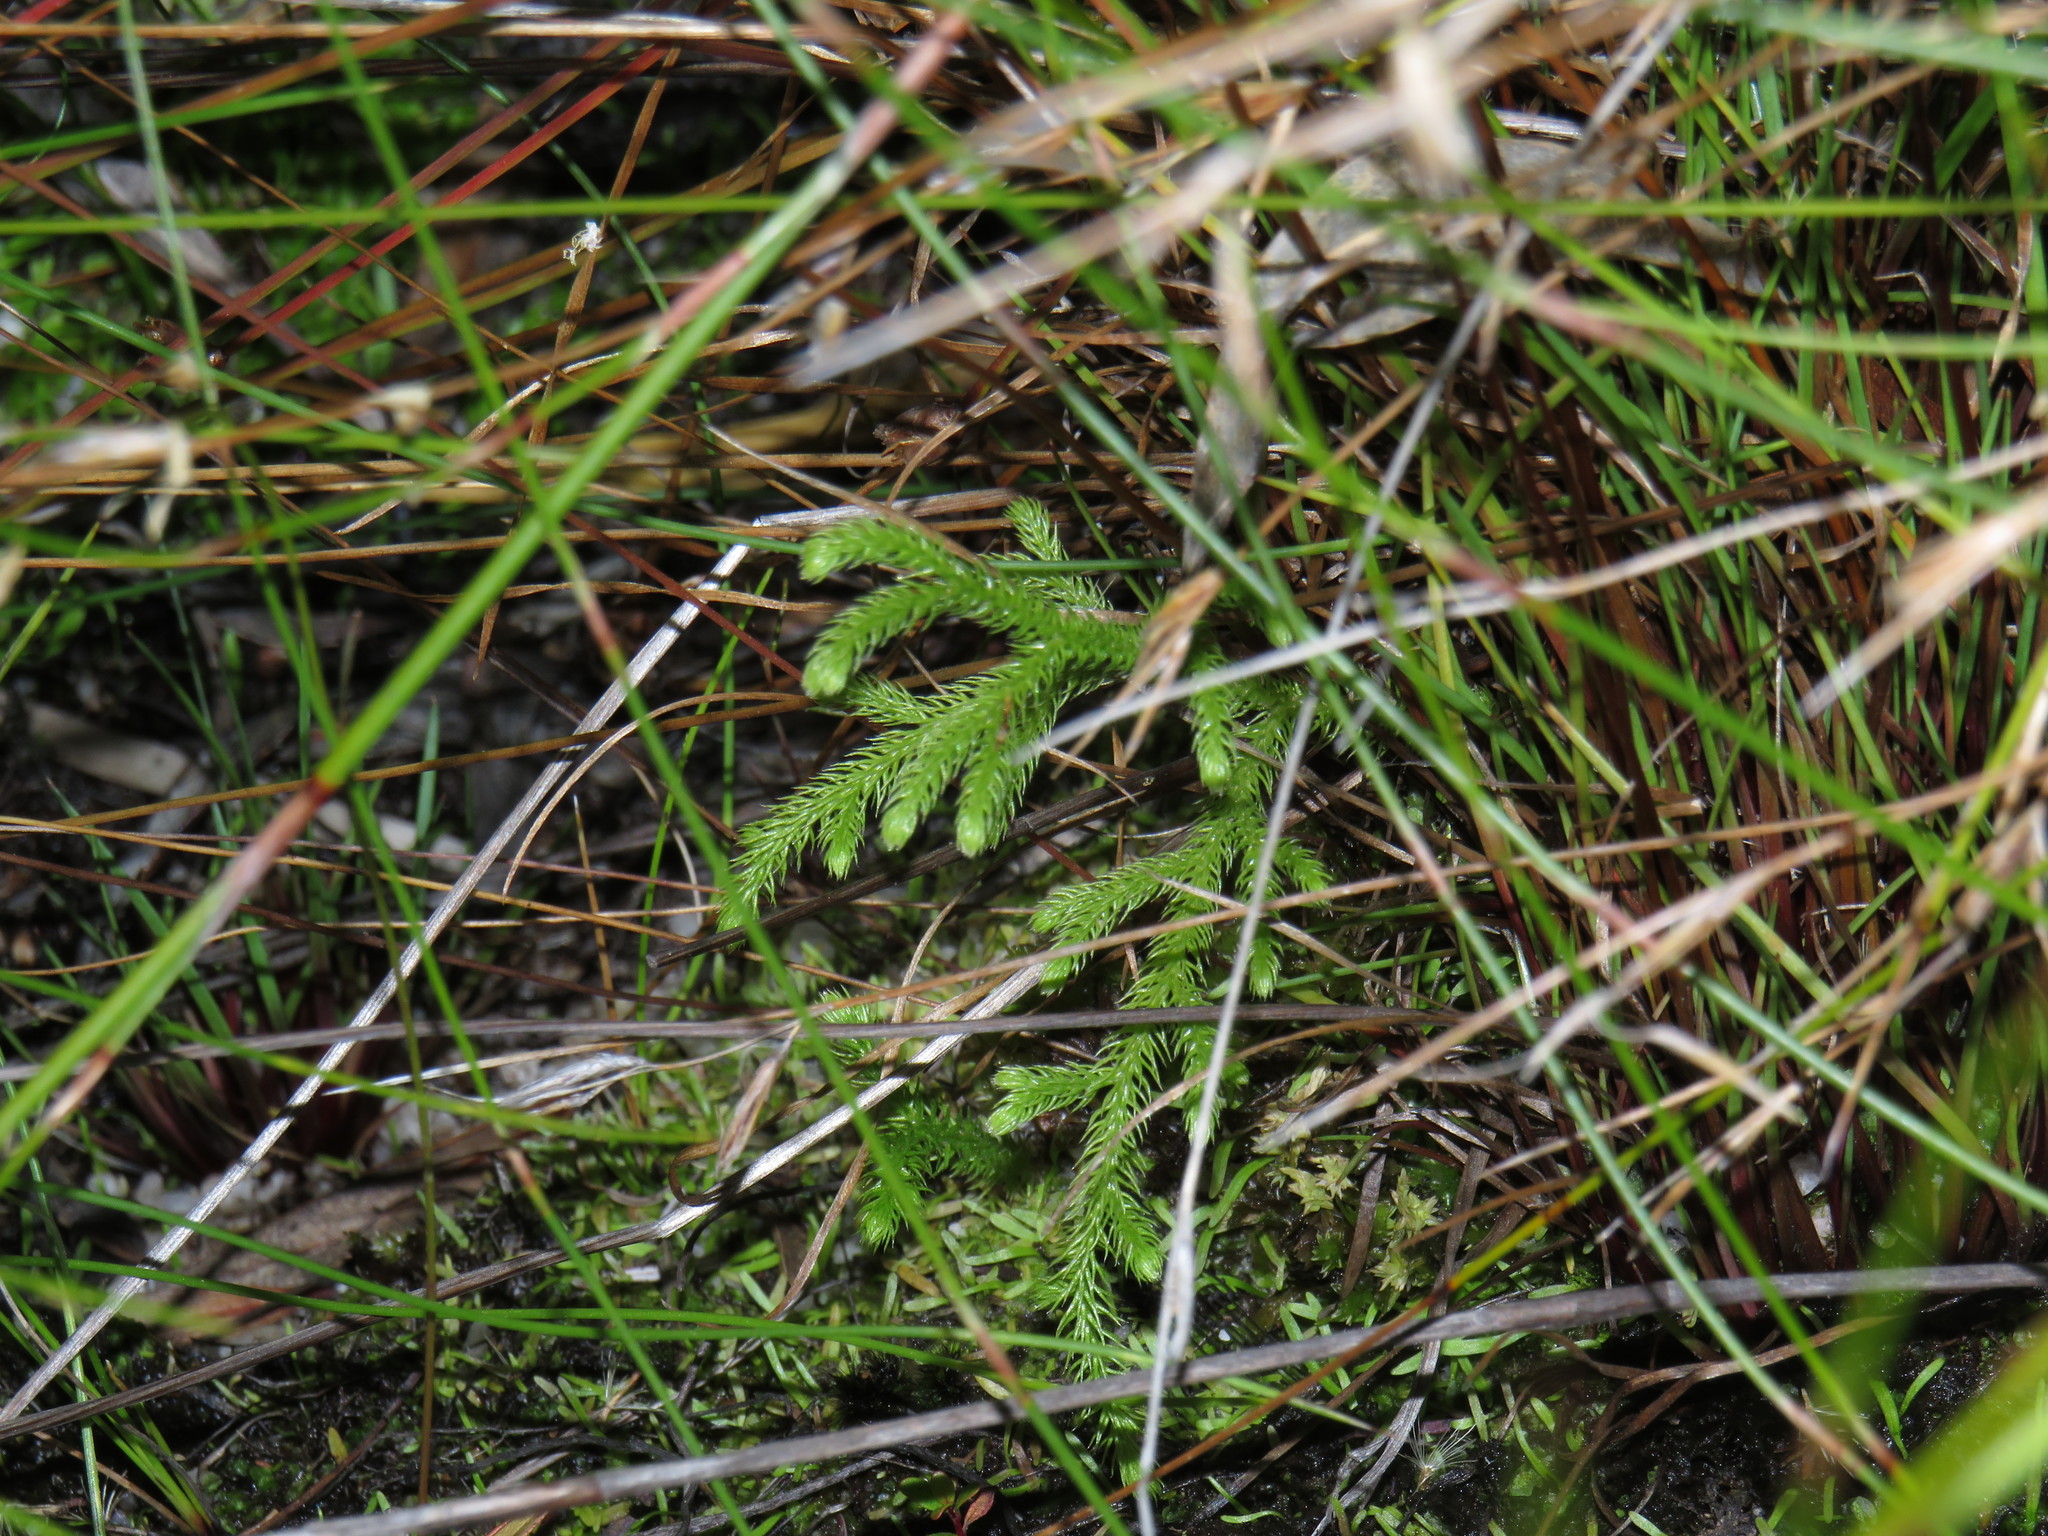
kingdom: Plantae
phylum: Tracheophyta
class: Lycopodiopsida
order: Lycopodiales
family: Lycopodiaceae
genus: Palhinhaea
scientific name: Palhinhaea cernua
